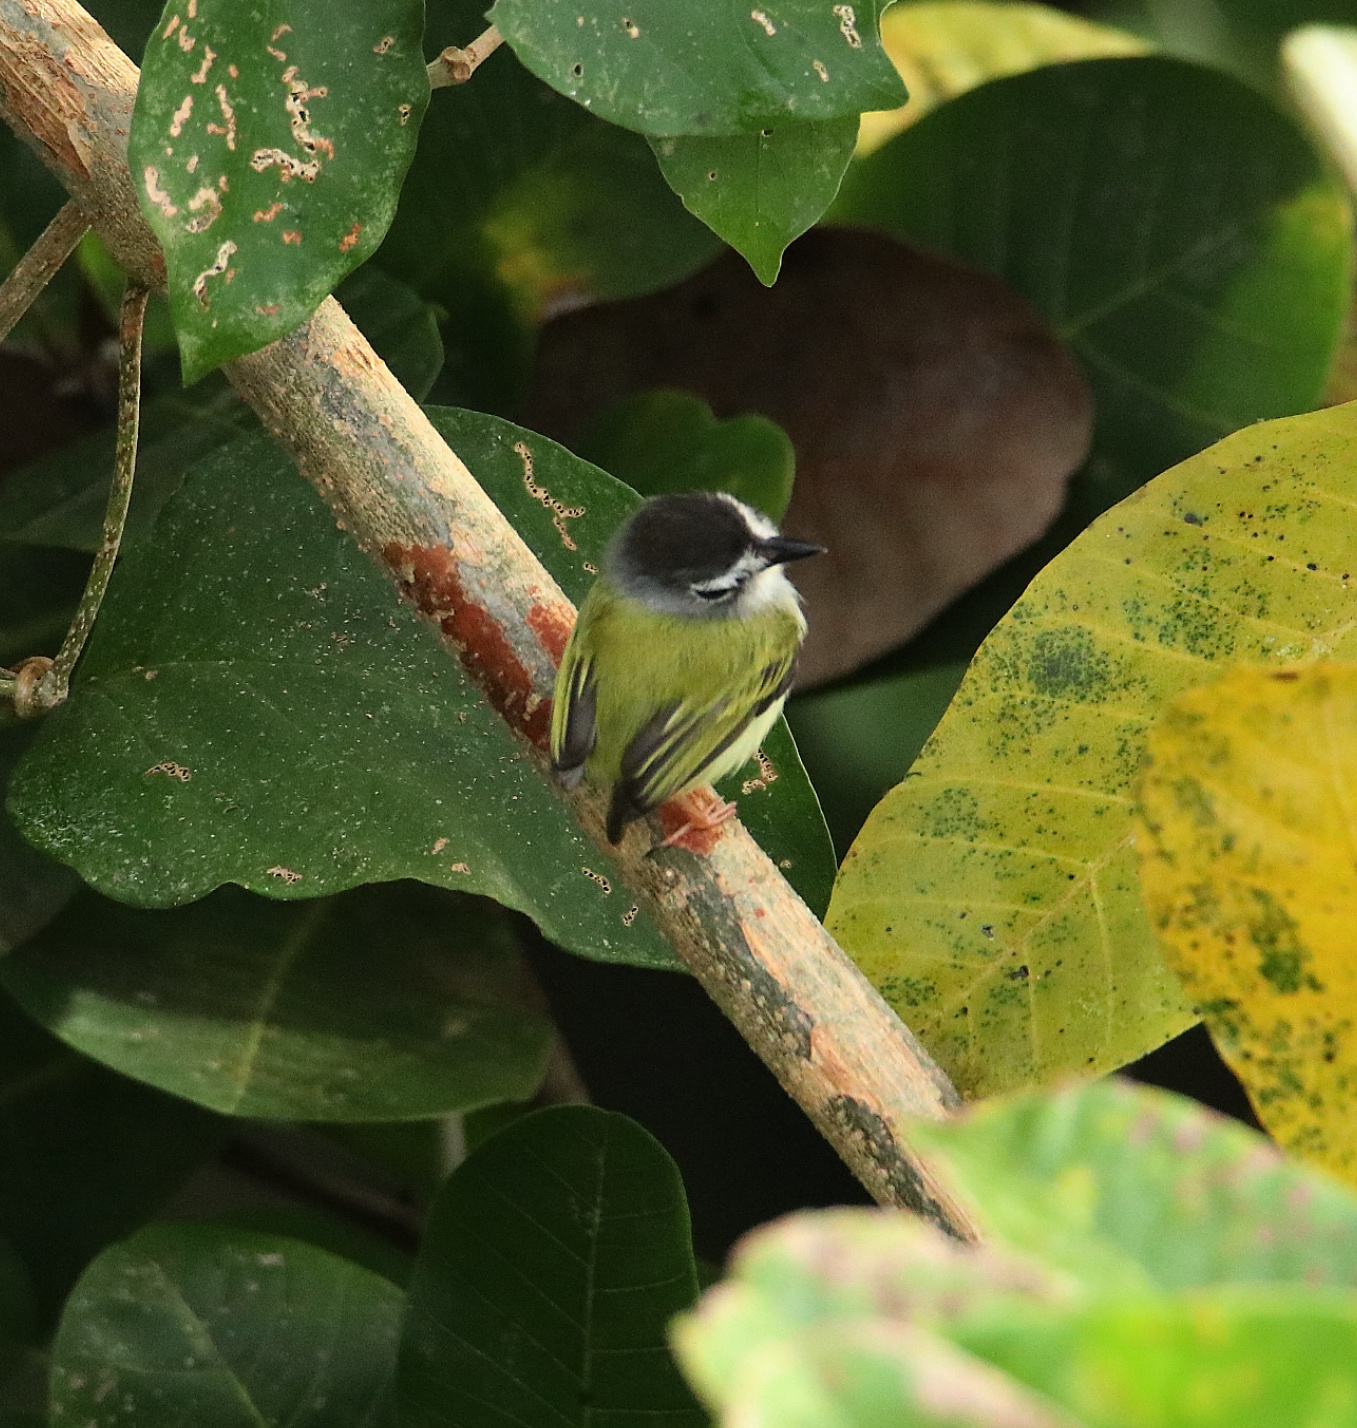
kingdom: Animalia
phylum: Chordata
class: Aves
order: Passeriformes
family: Tyrannidae
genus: Myiornis
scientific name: Myiornis atricapillus
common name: Black-capped pygmy-tyrant
